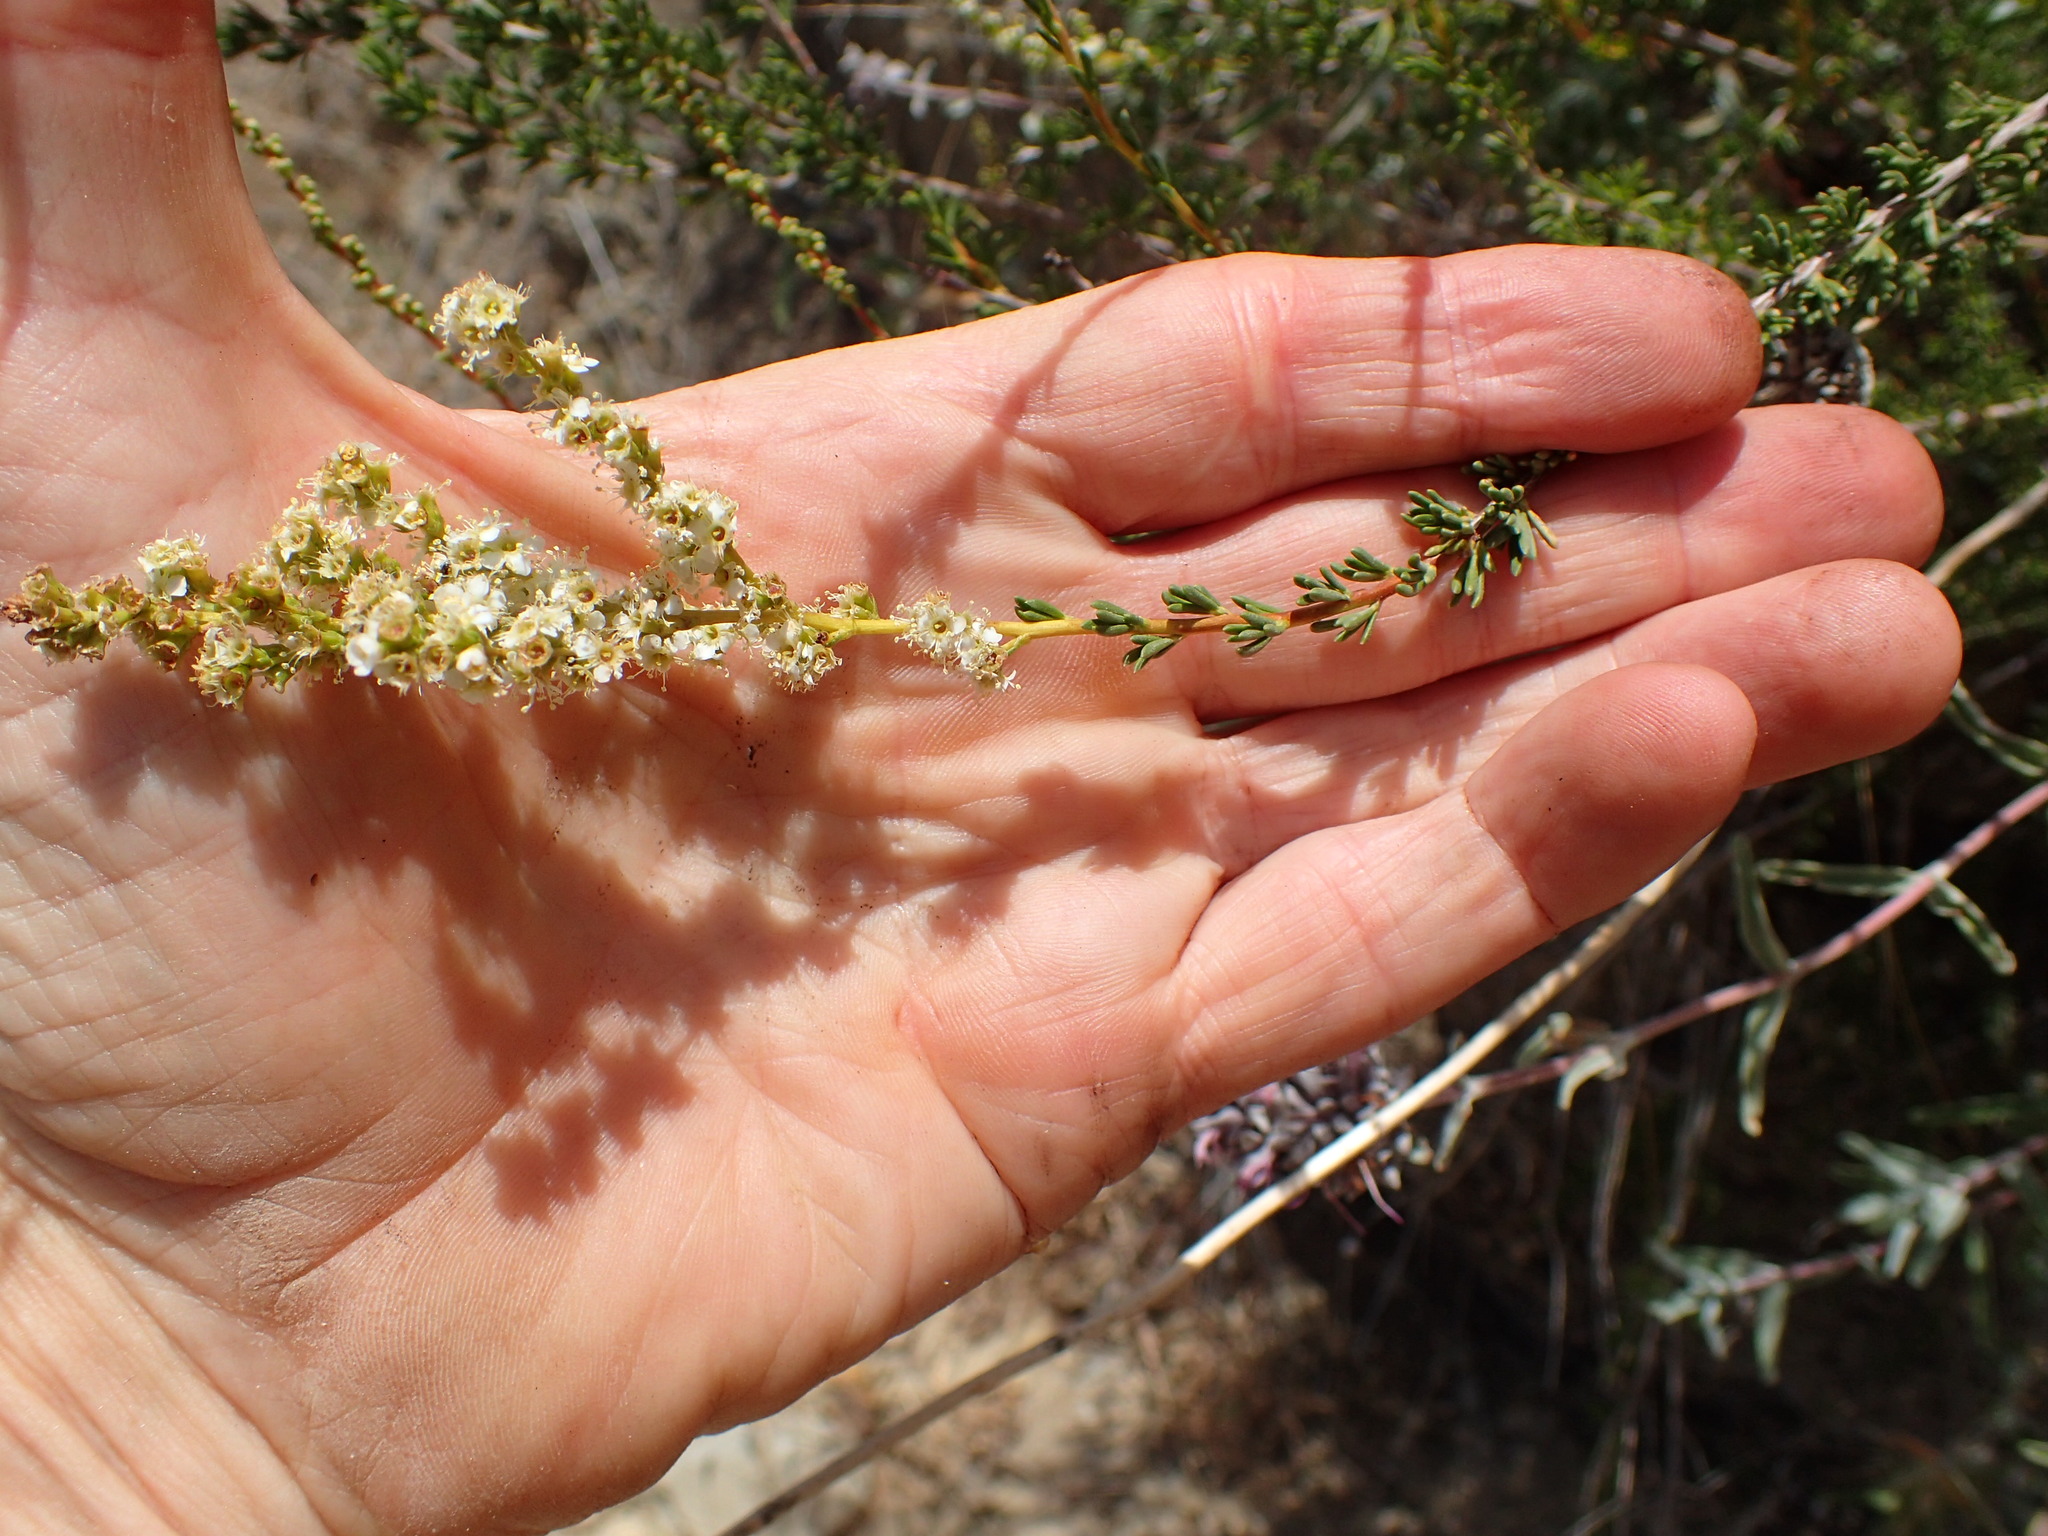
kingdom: Plantae
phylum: Tracheophyta
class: Magnoliopsida
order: Rosales
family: Rosaceae
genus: Adenostoma
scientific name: Adenostoma fasciculatum
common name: Chamise
